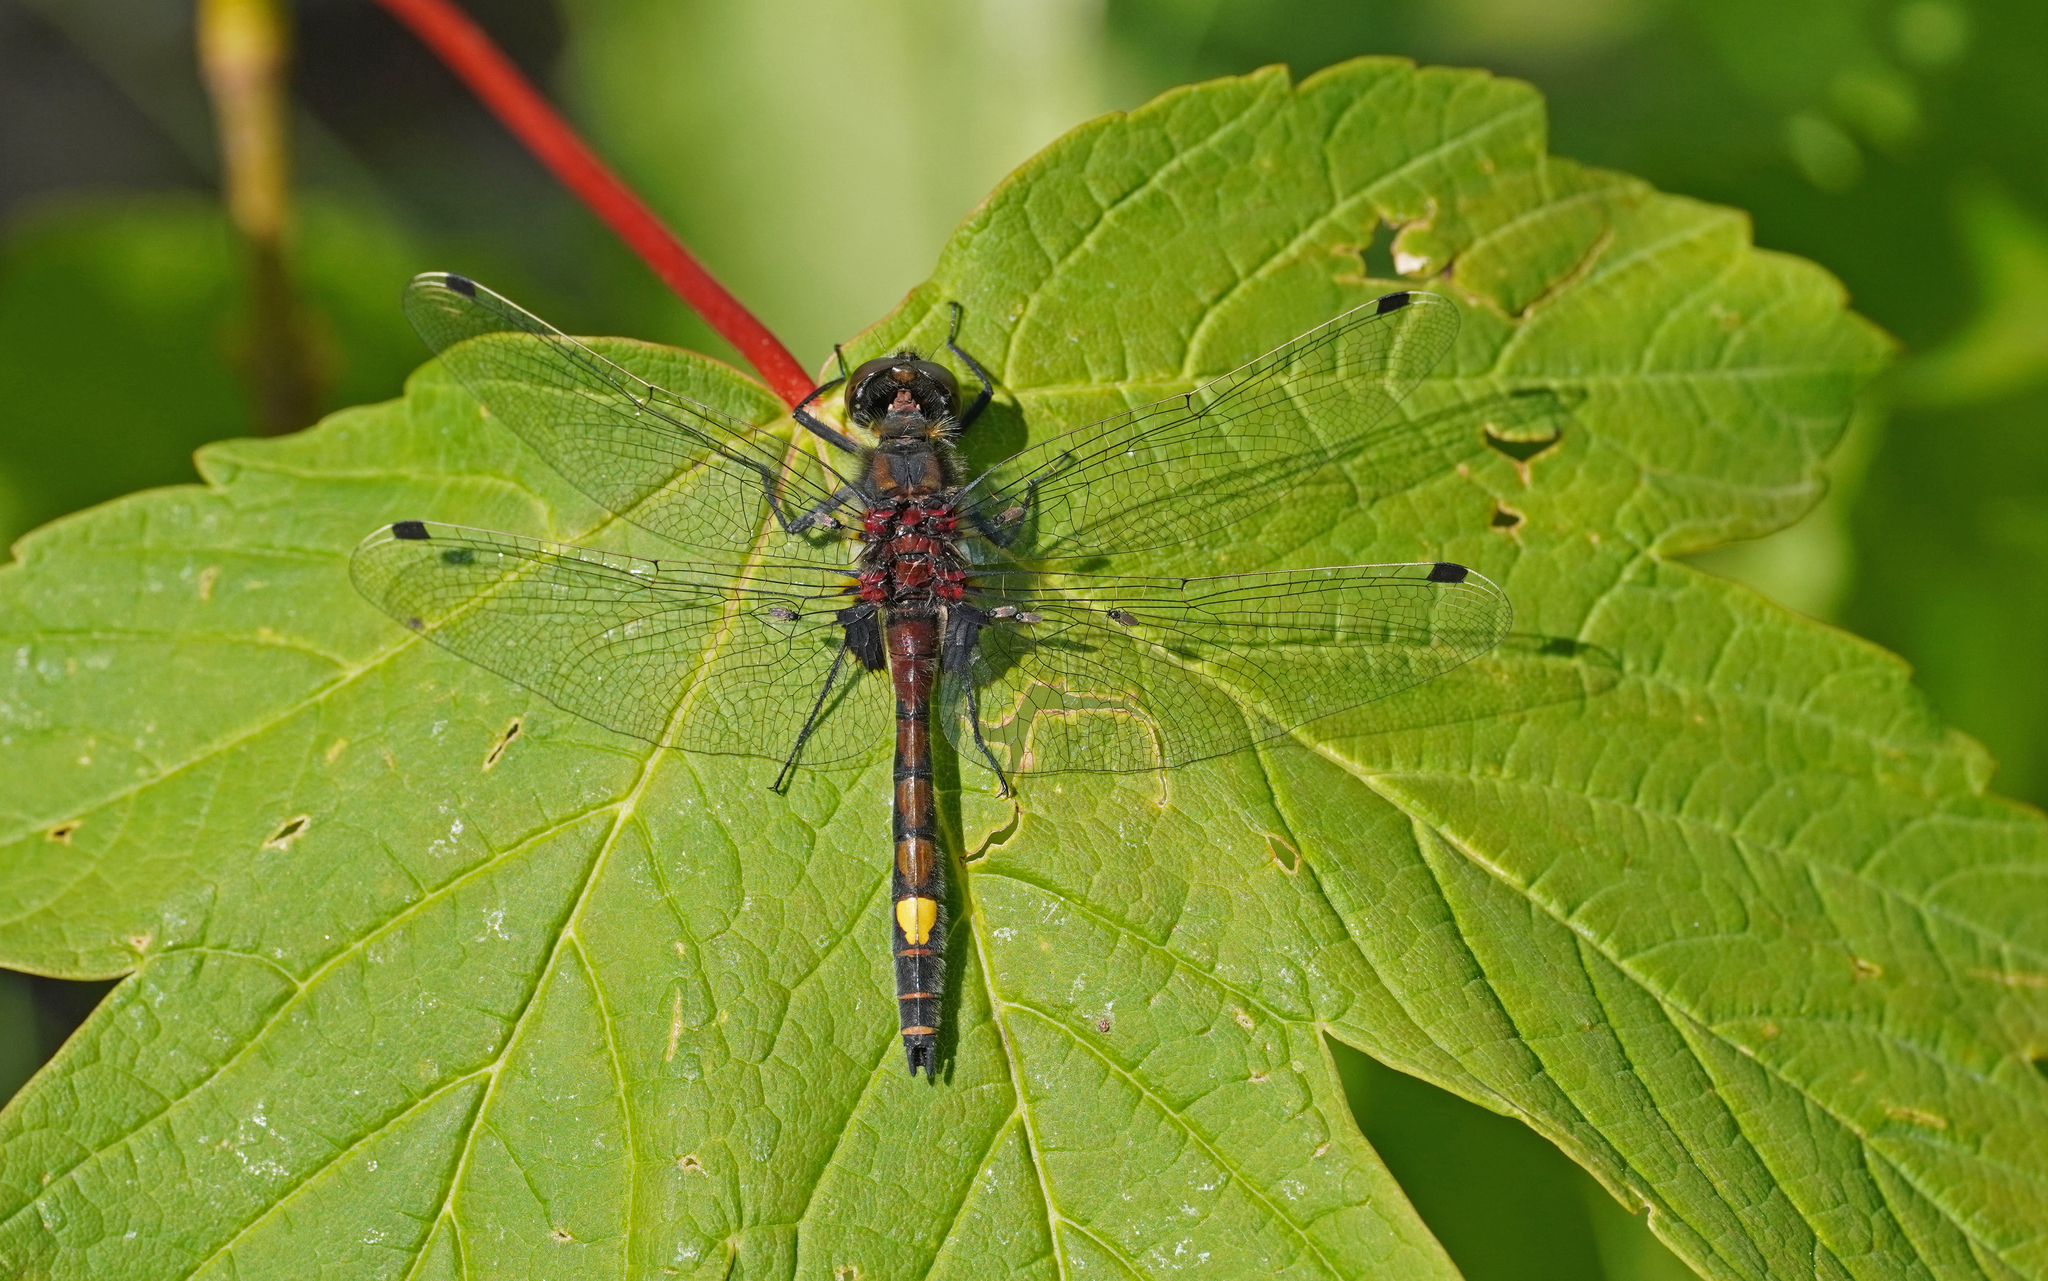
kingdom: Animalia
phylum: Arthropoda
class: Insecta
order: Odonata
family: Libellulidae
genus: Leucorrhinia
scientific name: Leucorrhinia pectoralis
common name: Yellow-spotted whiteface
